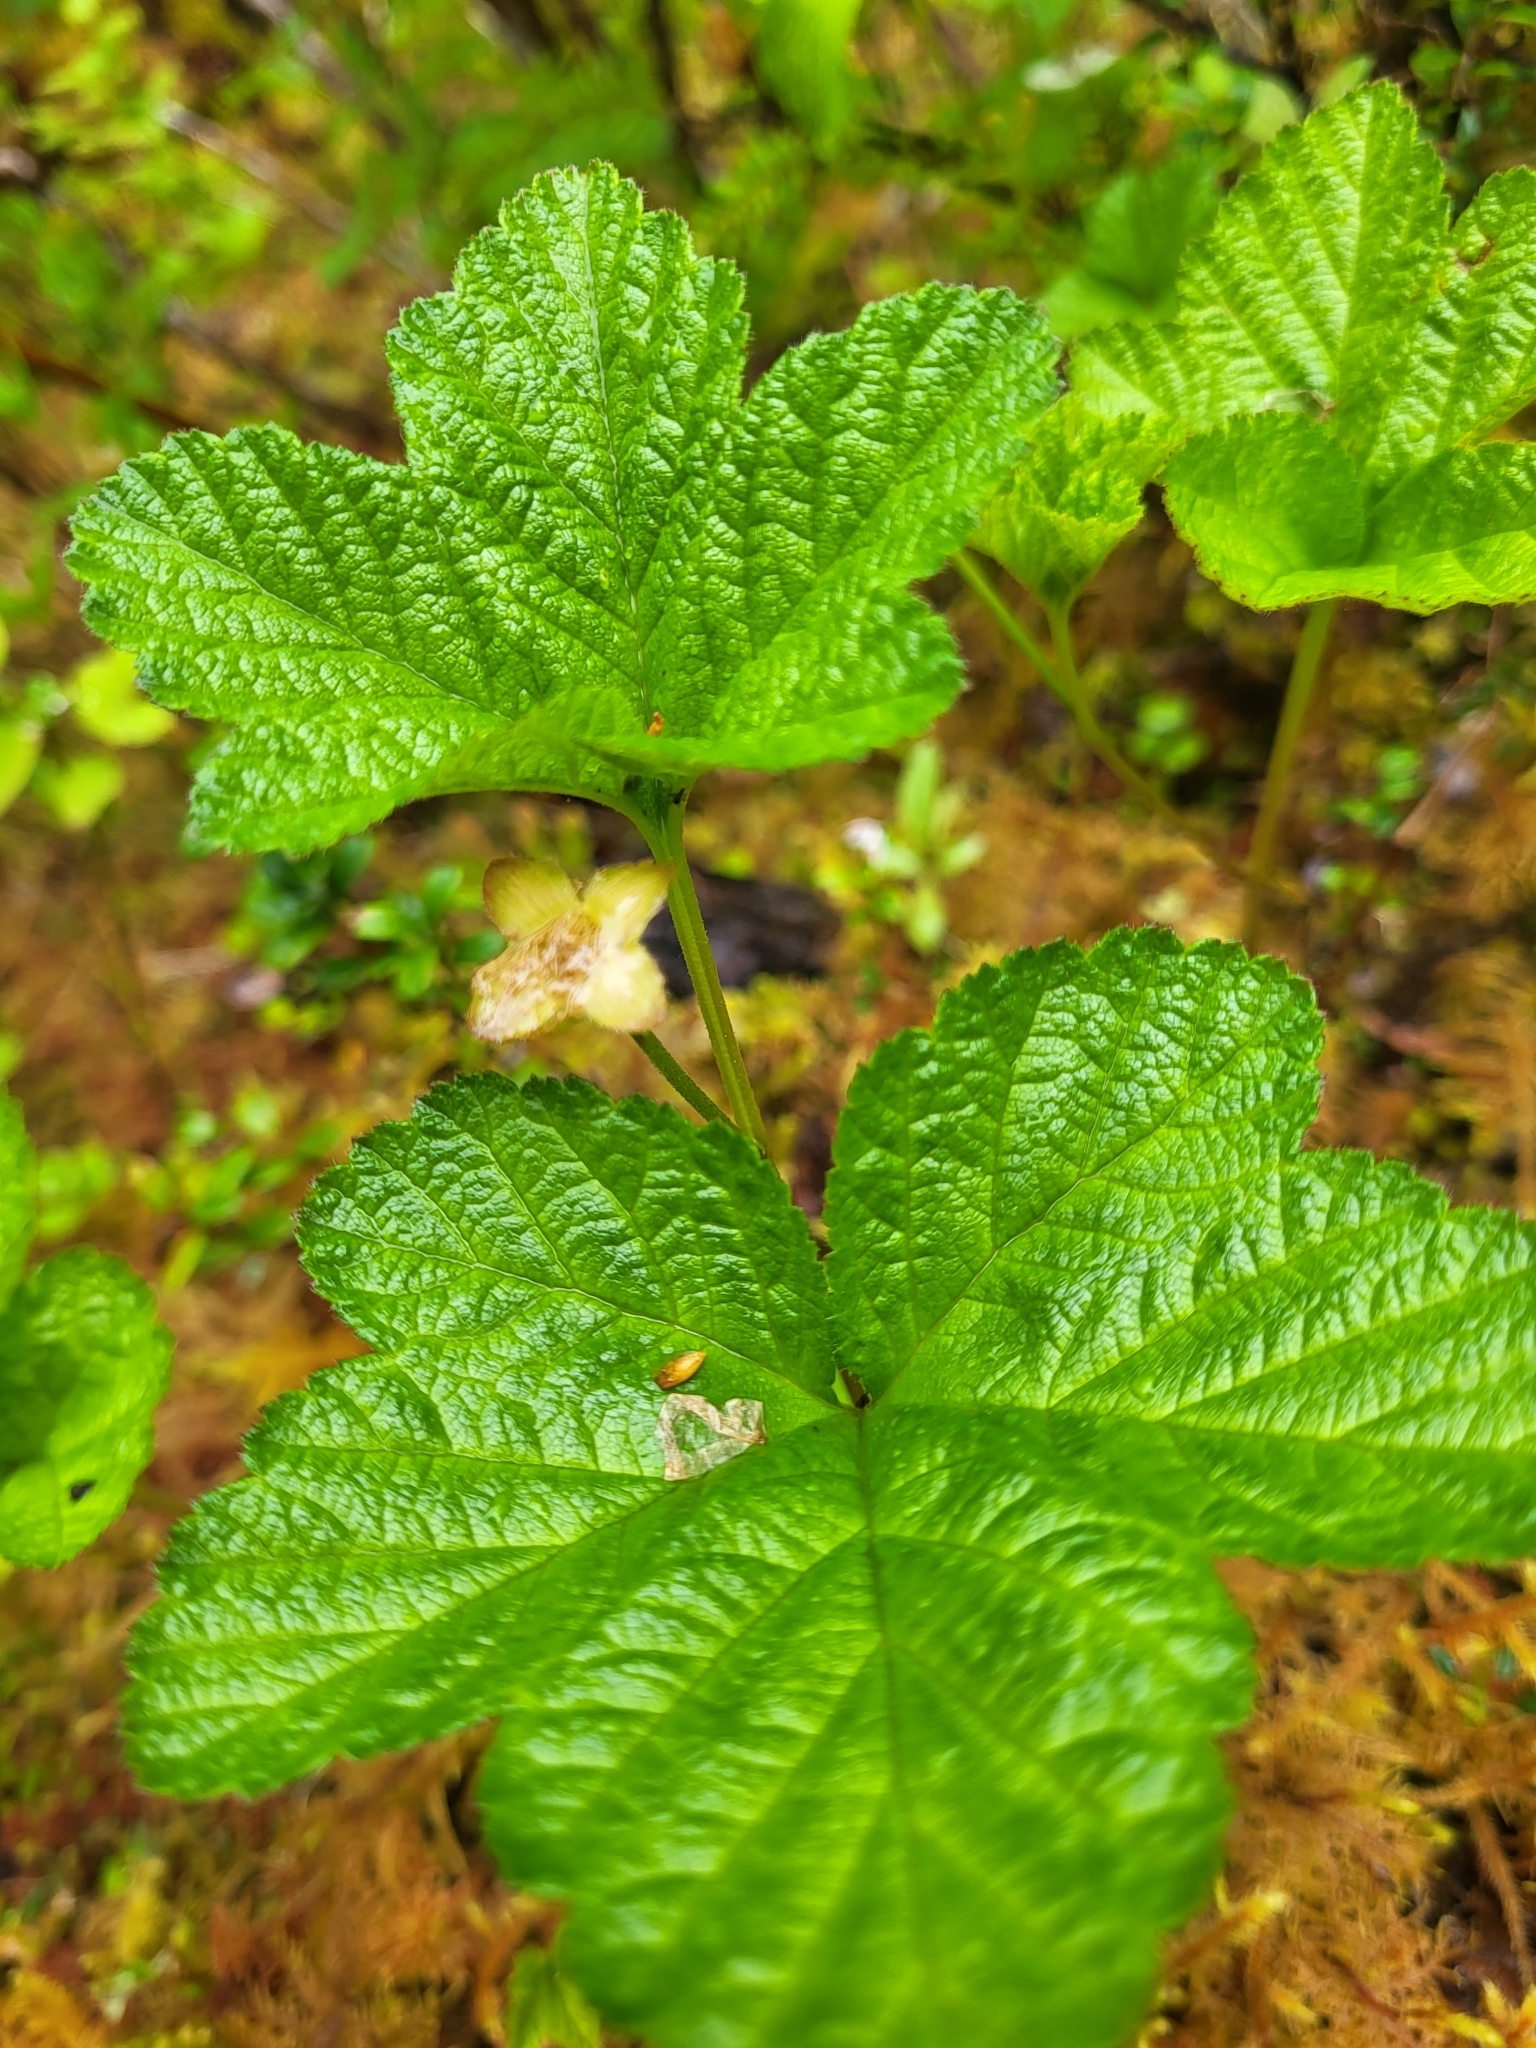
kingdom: Plantae
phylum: Tracheophyta
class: Magnoliopsida
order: Rosales
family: Rosaceae
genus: Rubus
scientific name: Rubus chamaemorus
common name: Cloudberry
